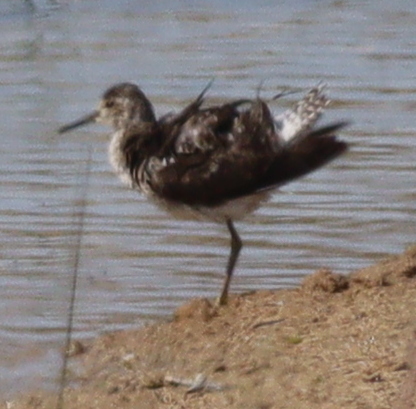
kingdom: Animalia
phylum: Chordata
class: Aves
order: Charadriiformes
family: Scolopacidae
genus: Tringa
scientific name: Tringa glareola
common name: Wood sandpiper
